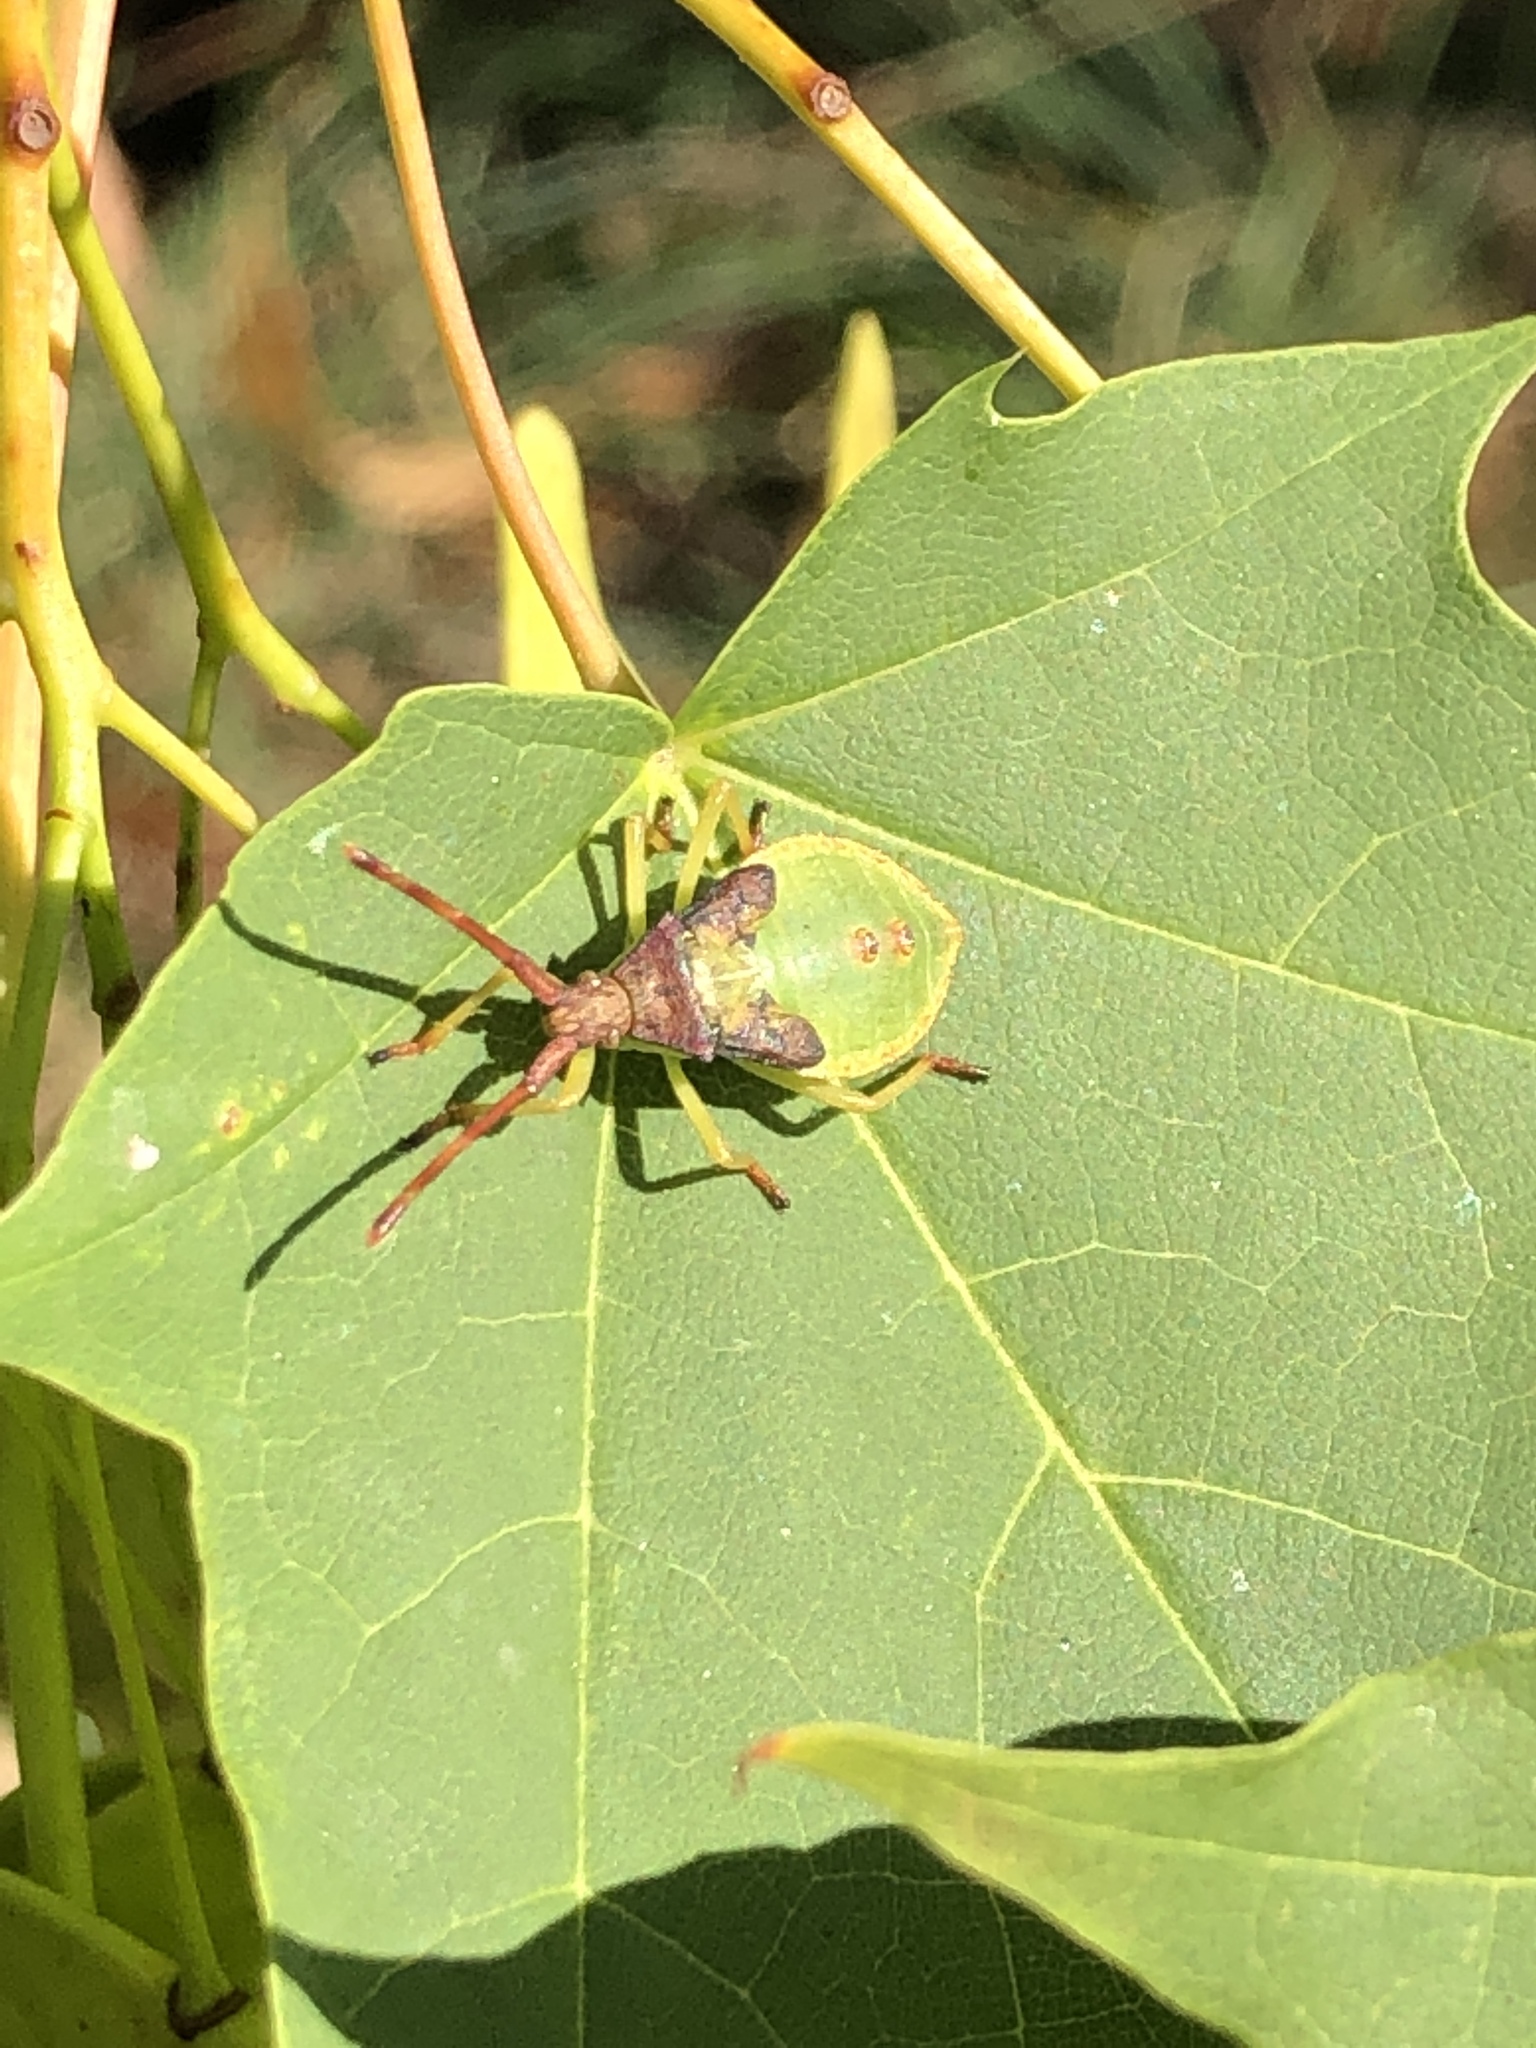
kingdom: Animalia
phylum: Arthropoda
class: Insecta
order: Hemiptera
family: Coreidae
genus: Gonocerus
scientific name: Gonocerus acuteangulatus
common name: Box bug
